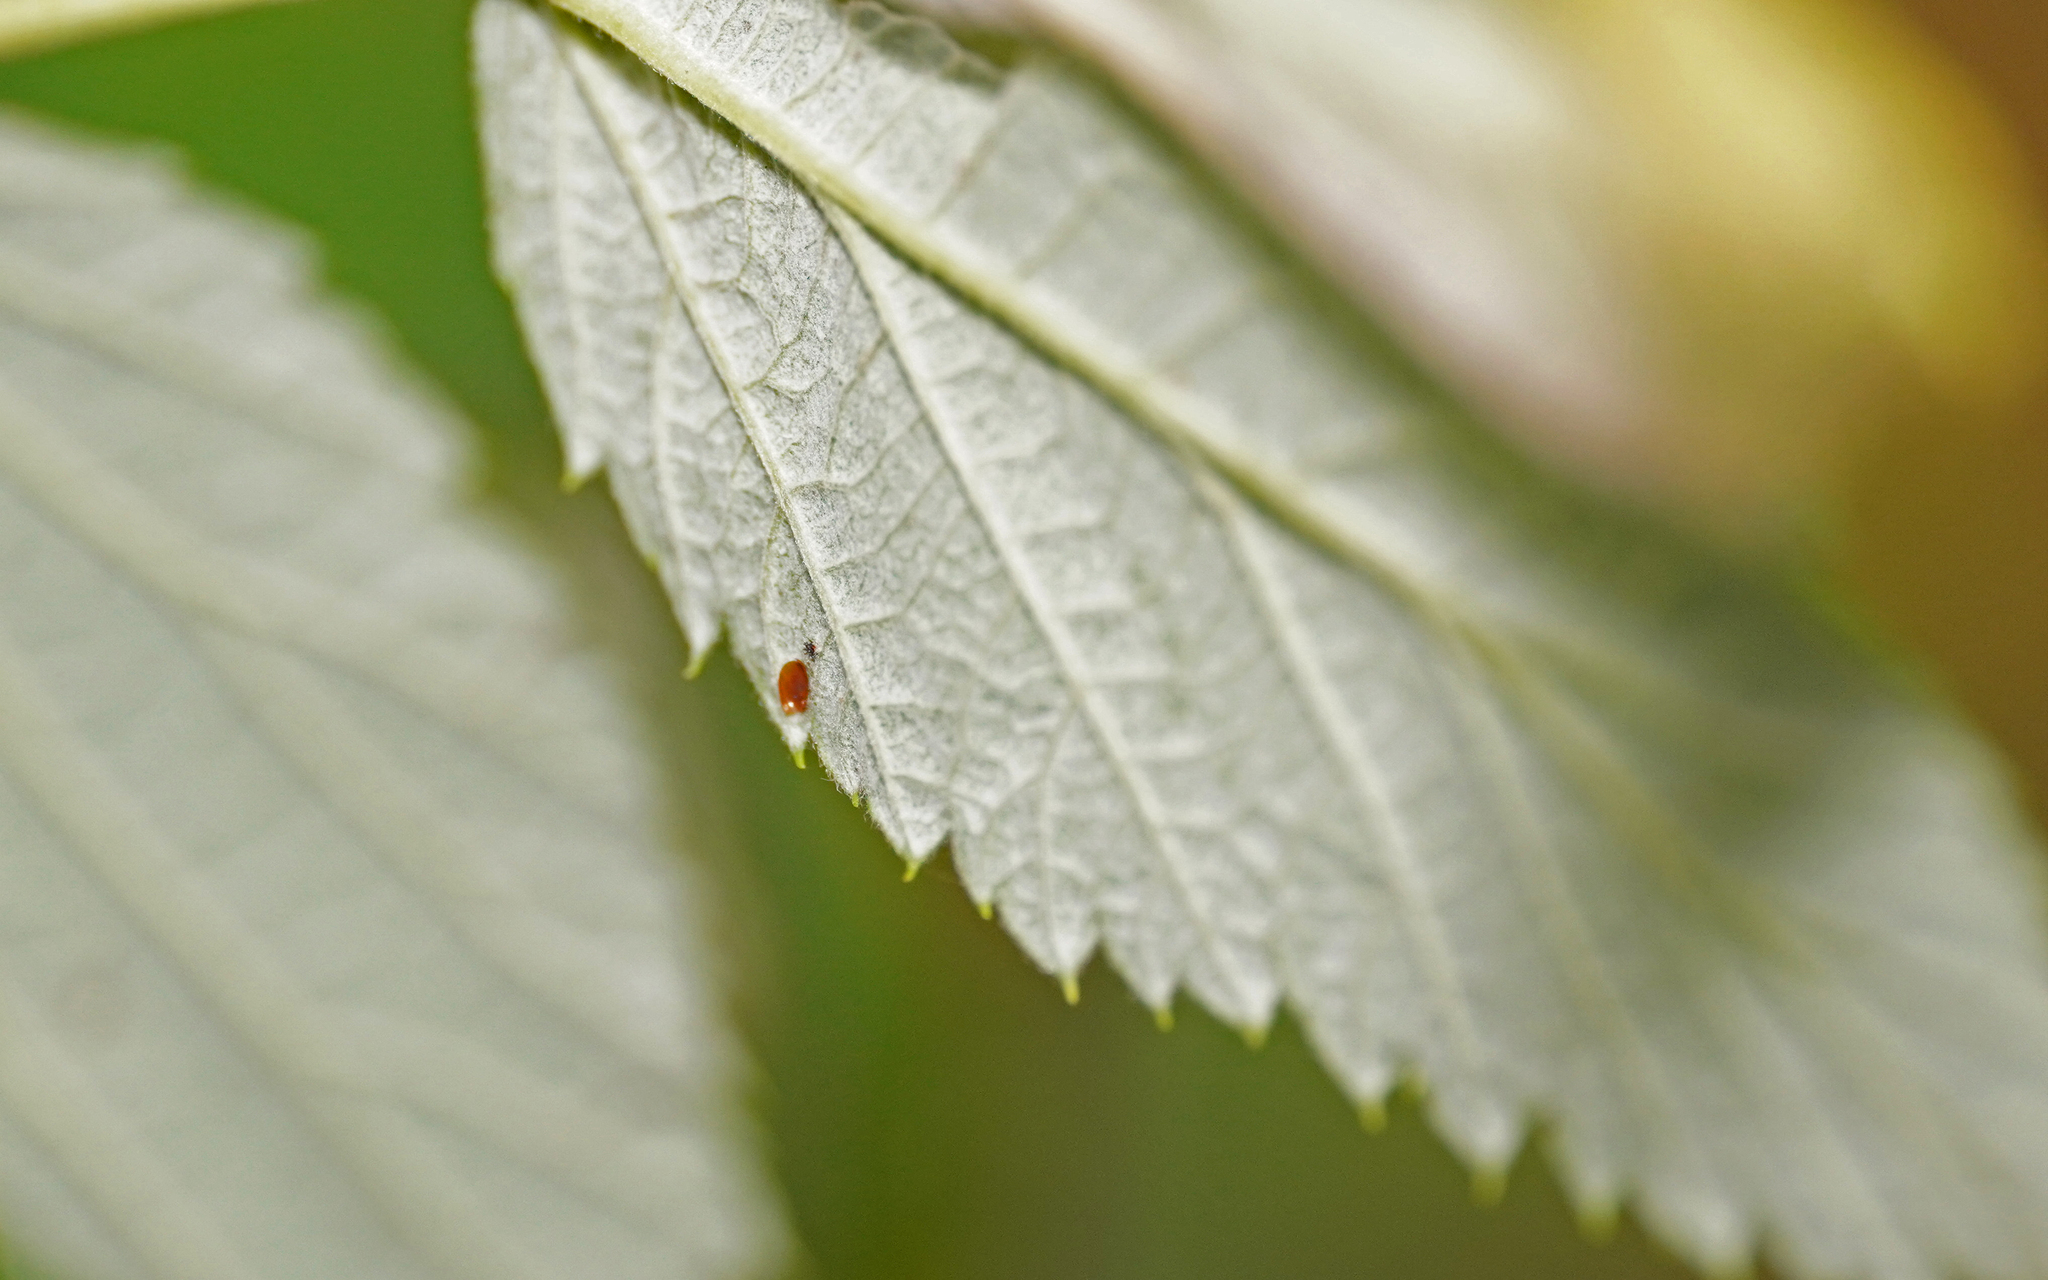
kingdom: Animalia
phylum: Arthropoda
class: Insecta
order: Lepidoptera
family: Sesiidae
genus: Pennisetia
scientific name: Pennisetia hylaeiformis
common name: Raspberry clearwing
